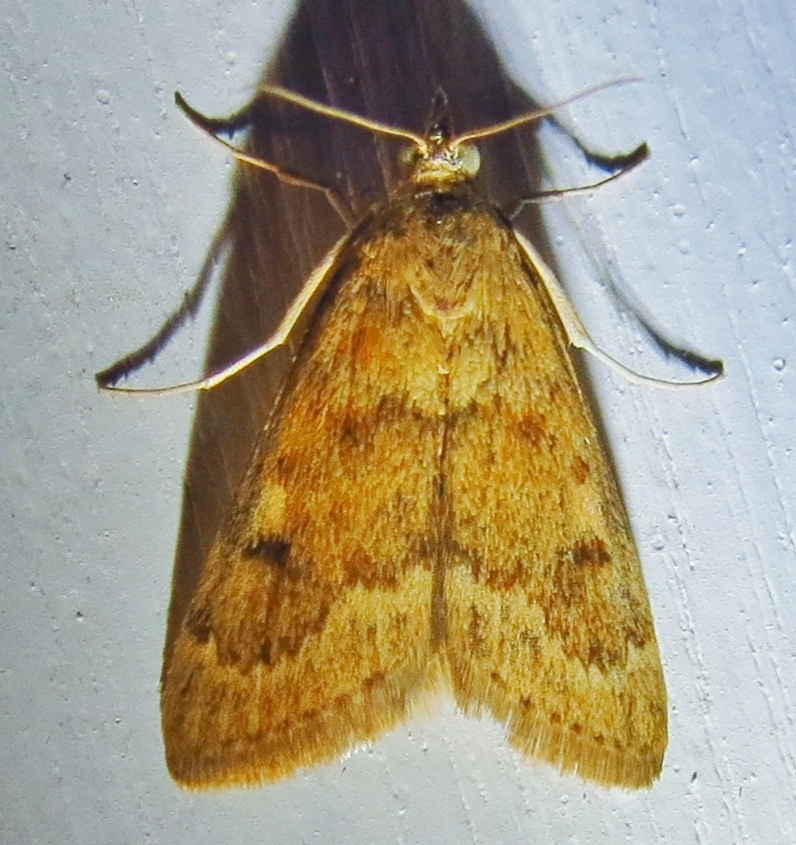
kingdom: Animalia
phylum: Arthropoda
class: Insecta
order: Lepidoptera
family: Crambidae
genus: Achyra
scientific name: Achyra rantalis
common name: Garden webworm
